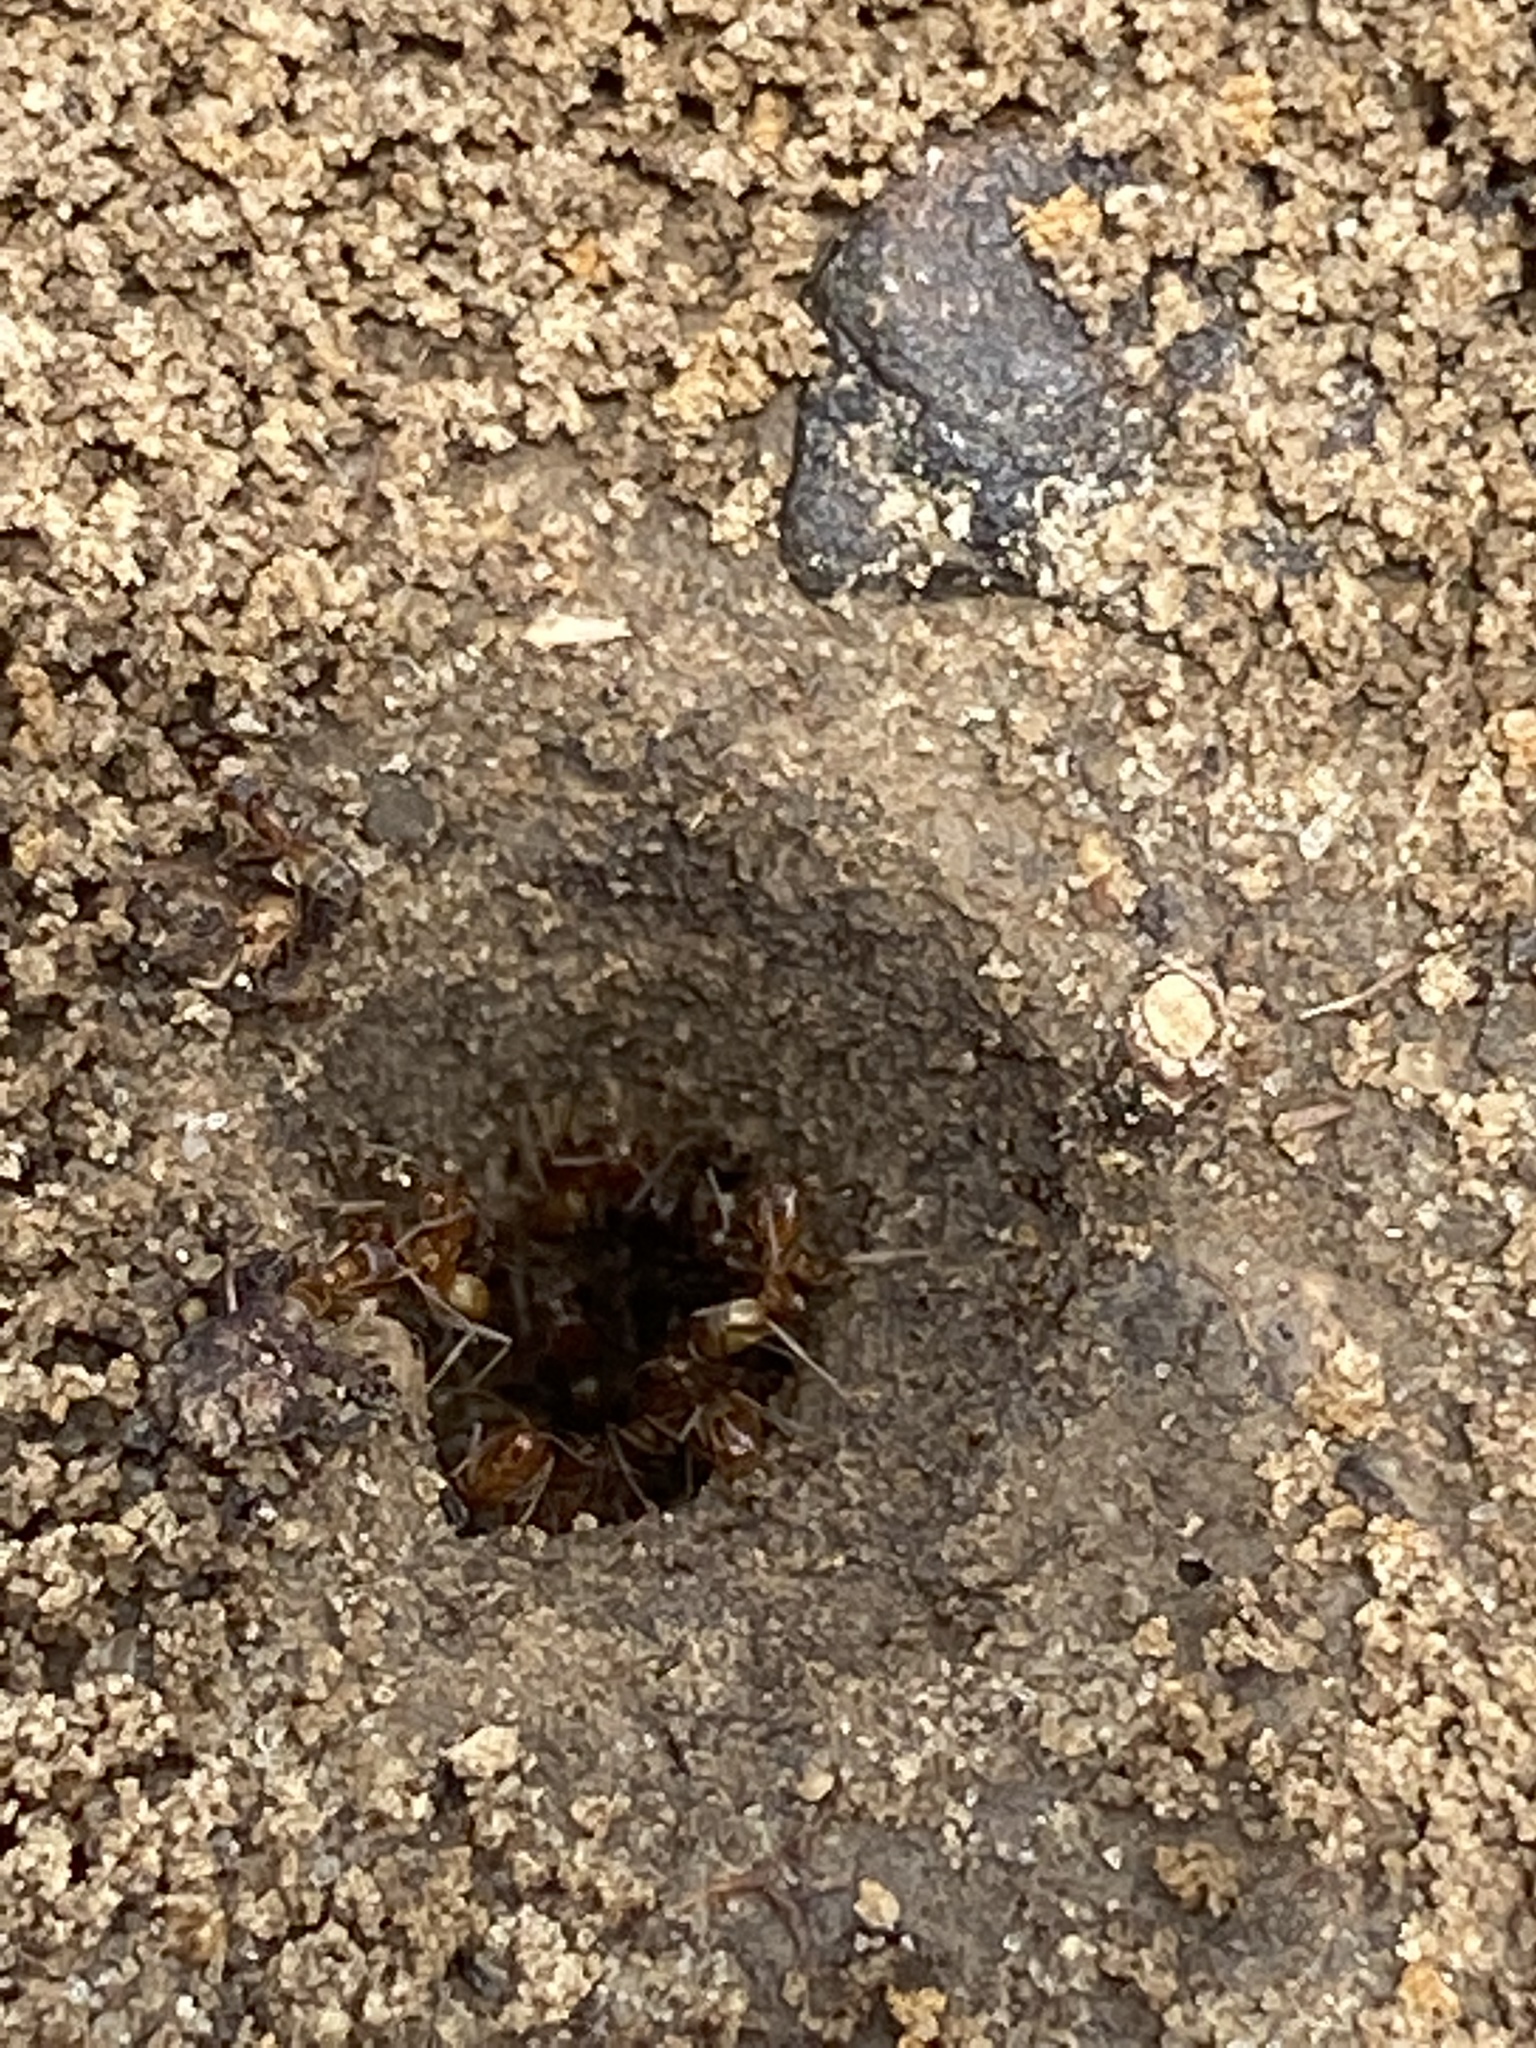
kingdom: Animalia
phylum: Arthropoda
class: Insecta
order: Hymenoptera
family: Formicidae
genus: Dorymyrmex
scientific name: Dorymyrmex flavus
